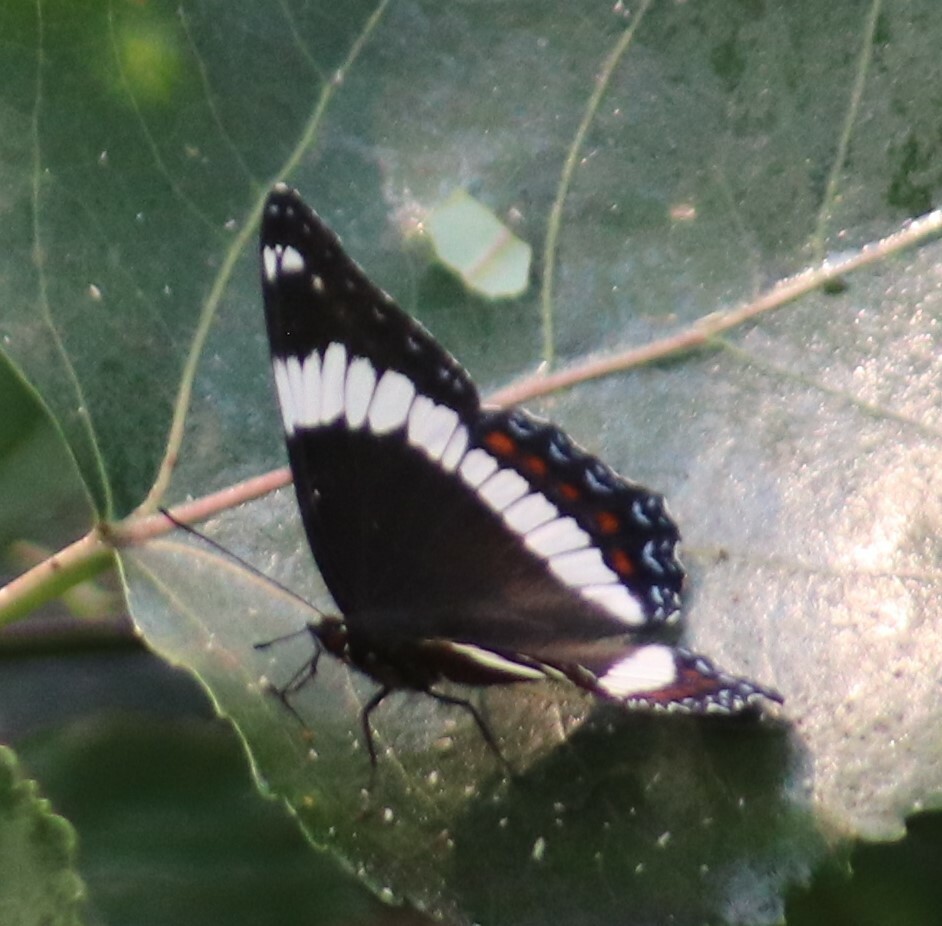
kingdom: Animalia
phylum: Arthropoda
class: Insecta
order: Lepidoptera
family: Nymphalidae
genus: Limenitis
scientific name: Limenitis arthemis
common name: Red-spotted admiral
